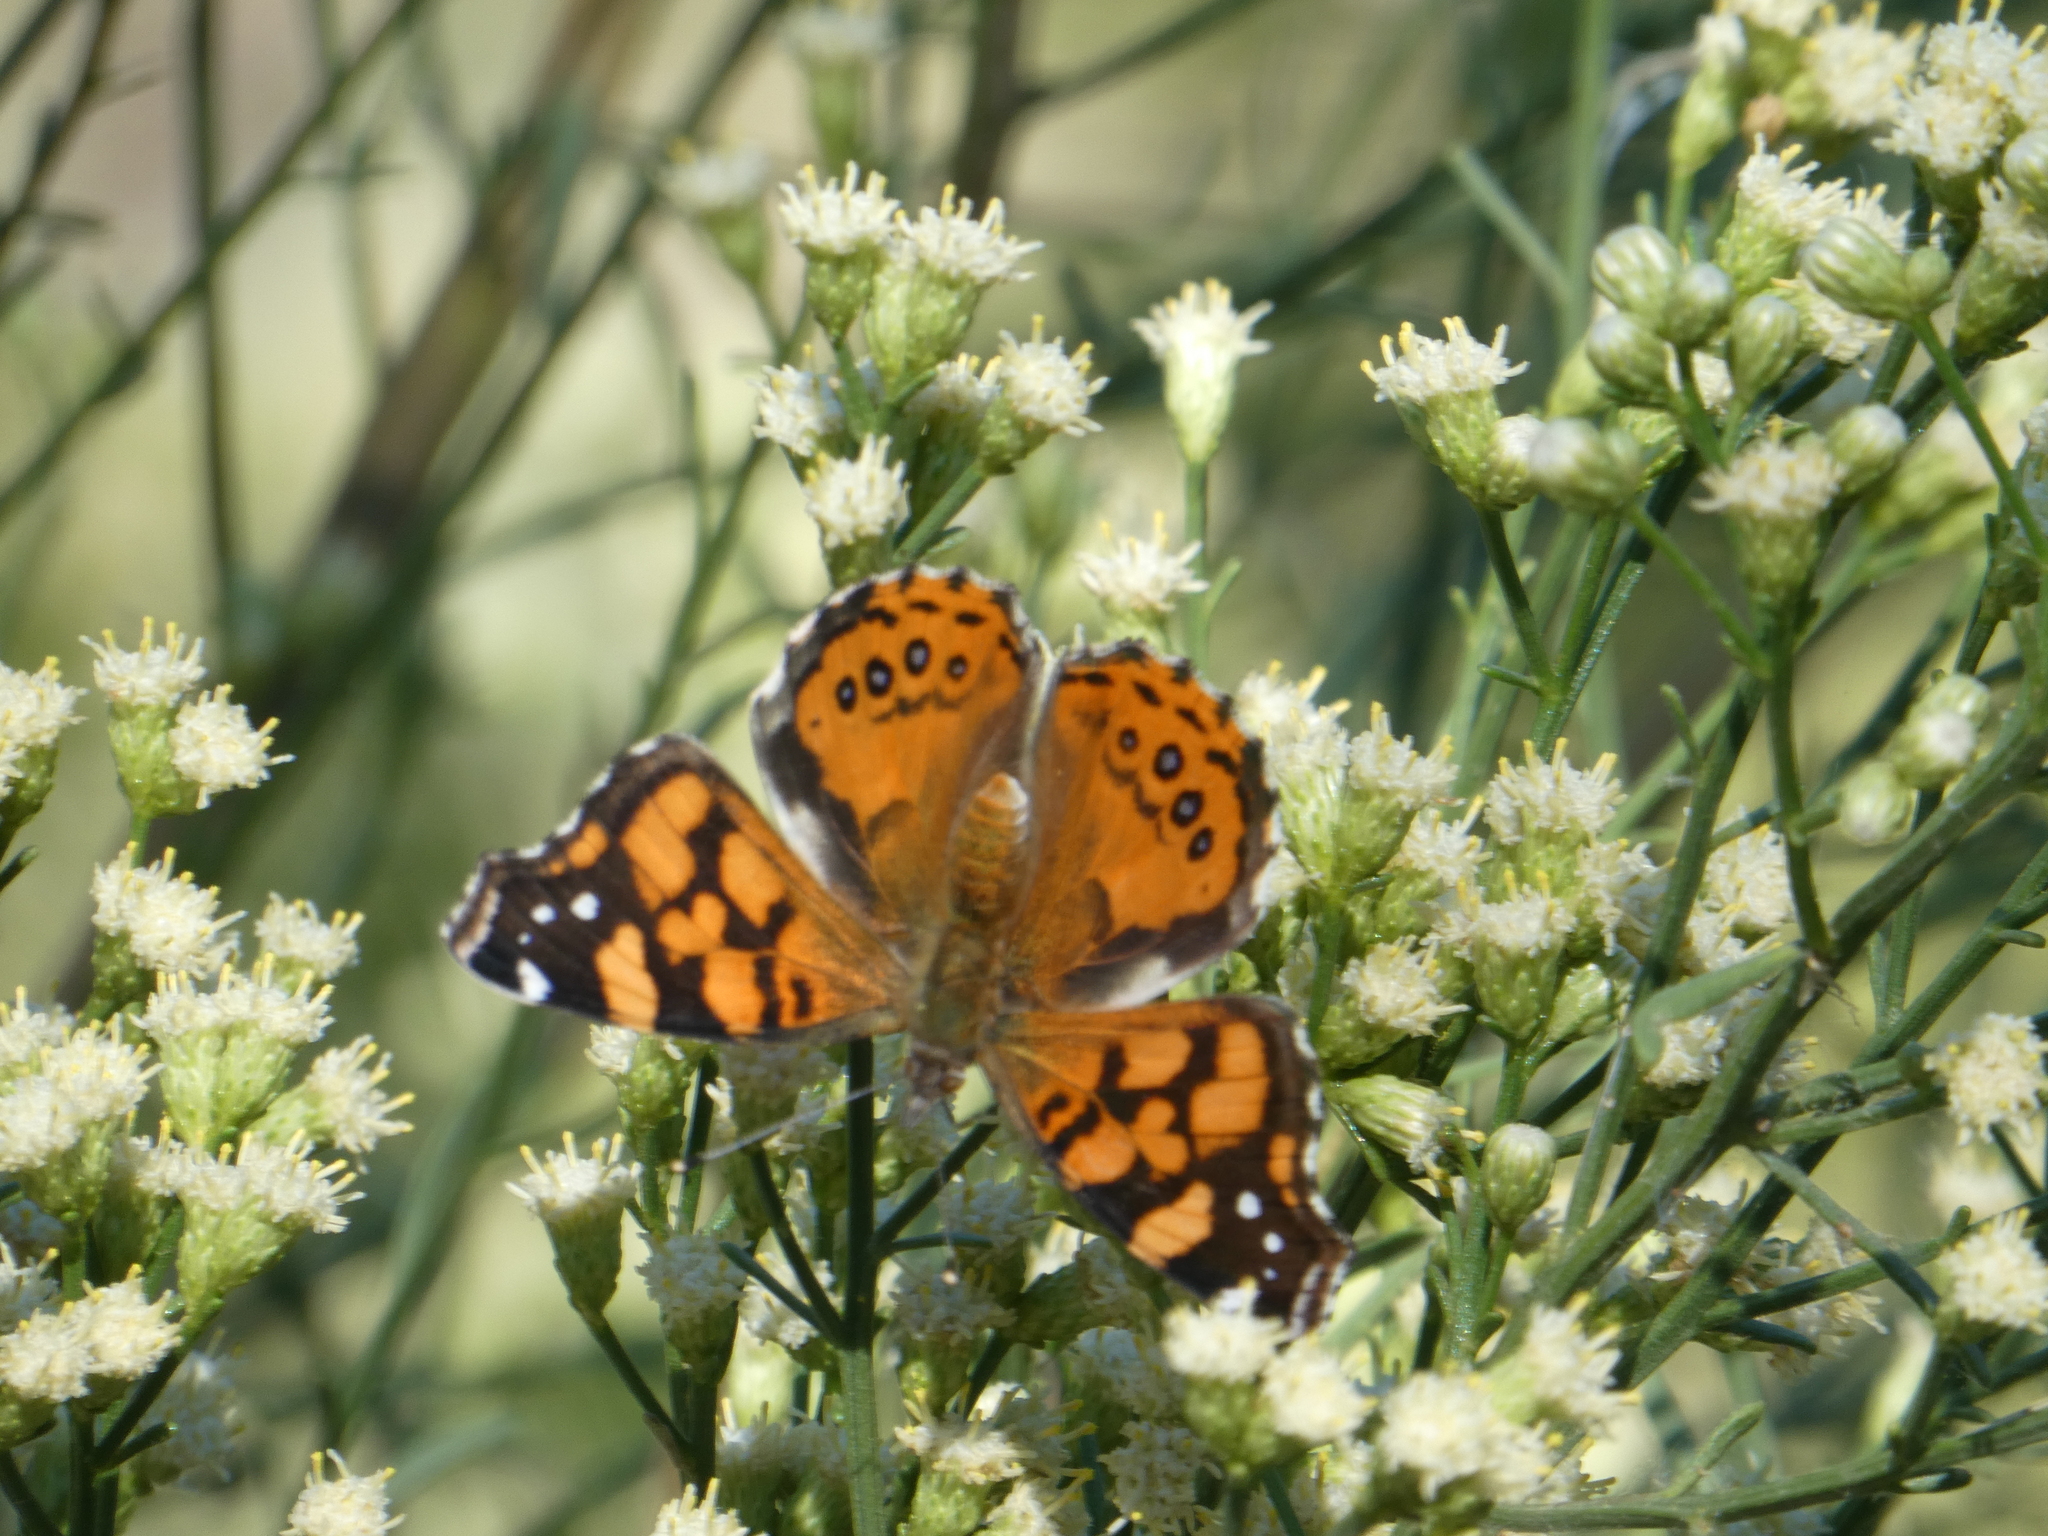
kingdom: Animalia
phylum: Arthropoda
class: Insecta
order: Lepidoptera
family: Nymphalidae
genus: Vanessa
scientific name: Vanessa annabella
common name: West coast lady
